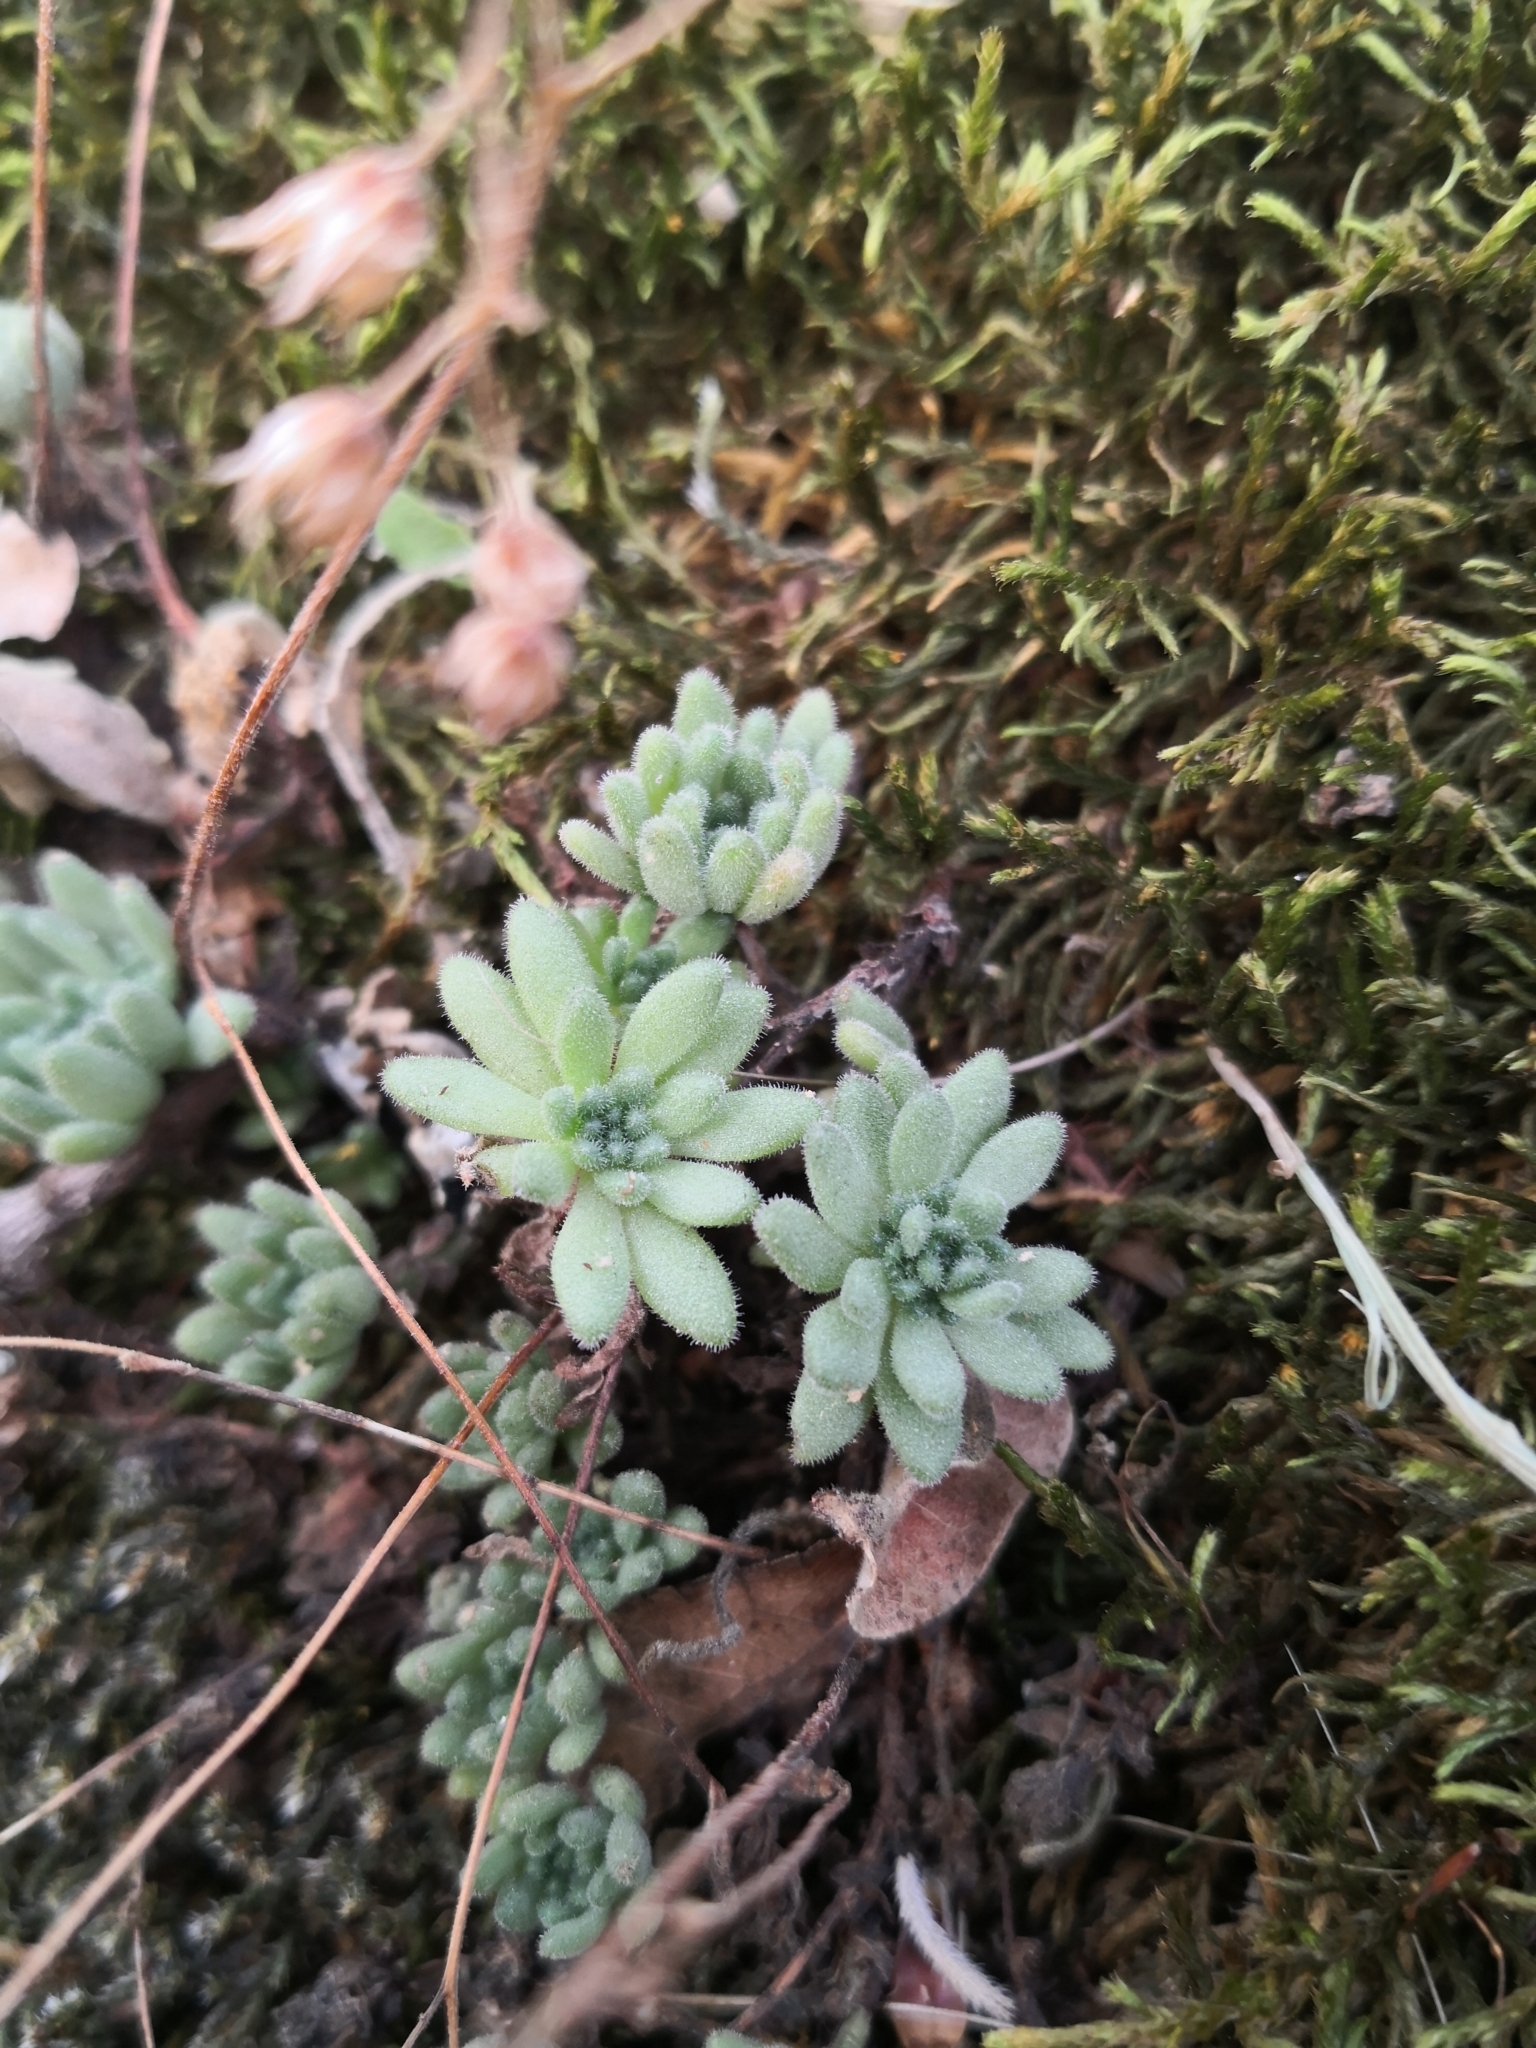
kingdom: Plantae
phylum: Tracheophyta
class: Magnoliopsida
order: Saxifragales
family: Crassulaceae
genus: Sedum
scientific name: Sedum hirsutum
